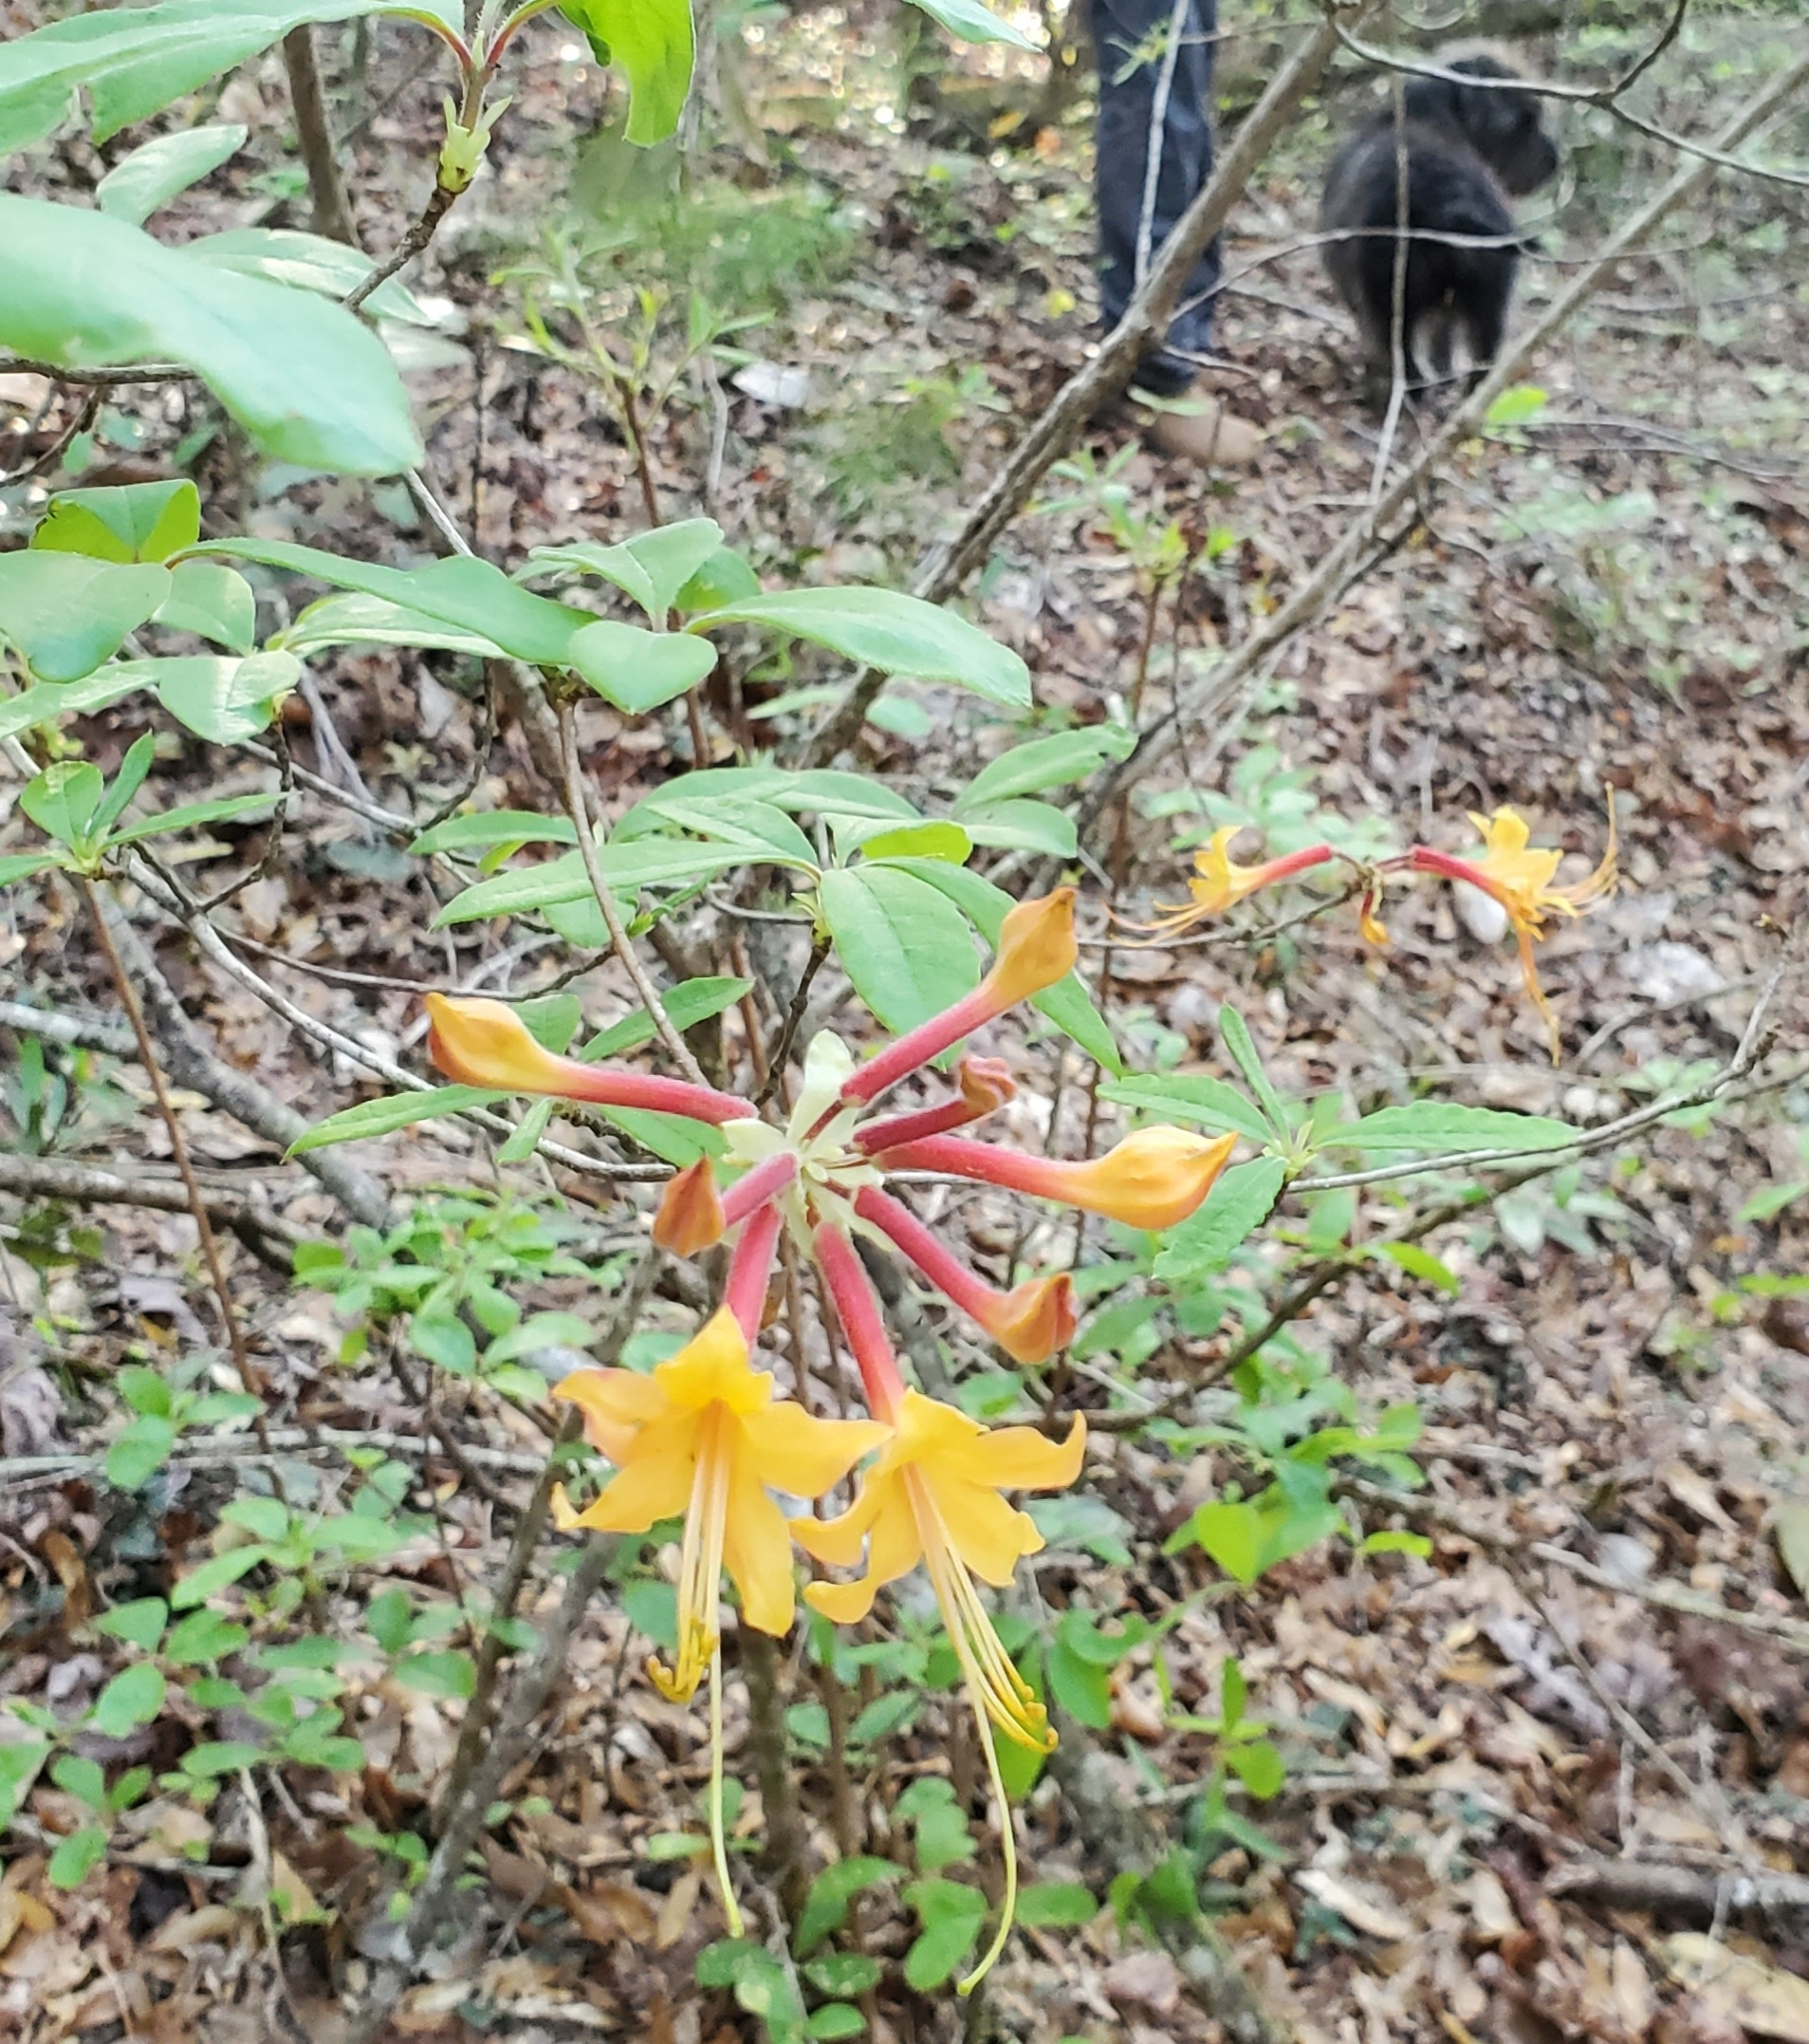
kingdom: Plantae
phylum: Tracheophyta
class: Magnoliopsida
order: Ericales
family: Ericaceae
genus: Rhododendron
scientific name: Rhododendron austrinum
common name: Florida azalea
